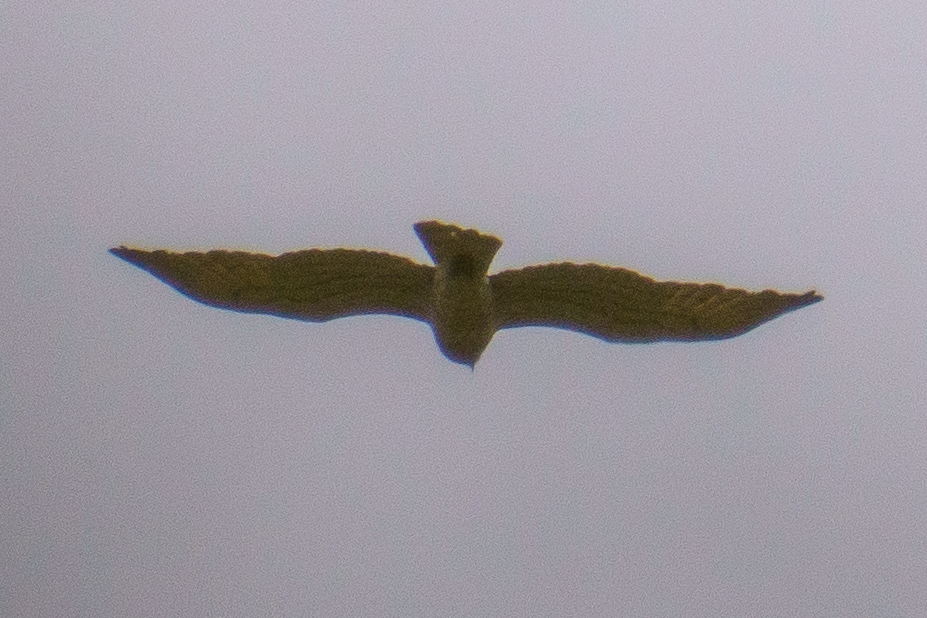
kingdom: Animalia
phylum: Chordata
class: Aves
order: Accipitriformes
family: Accipitridae
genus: Circaetus
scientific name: Circaetus gallicus
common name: Short-toed snake eagle
